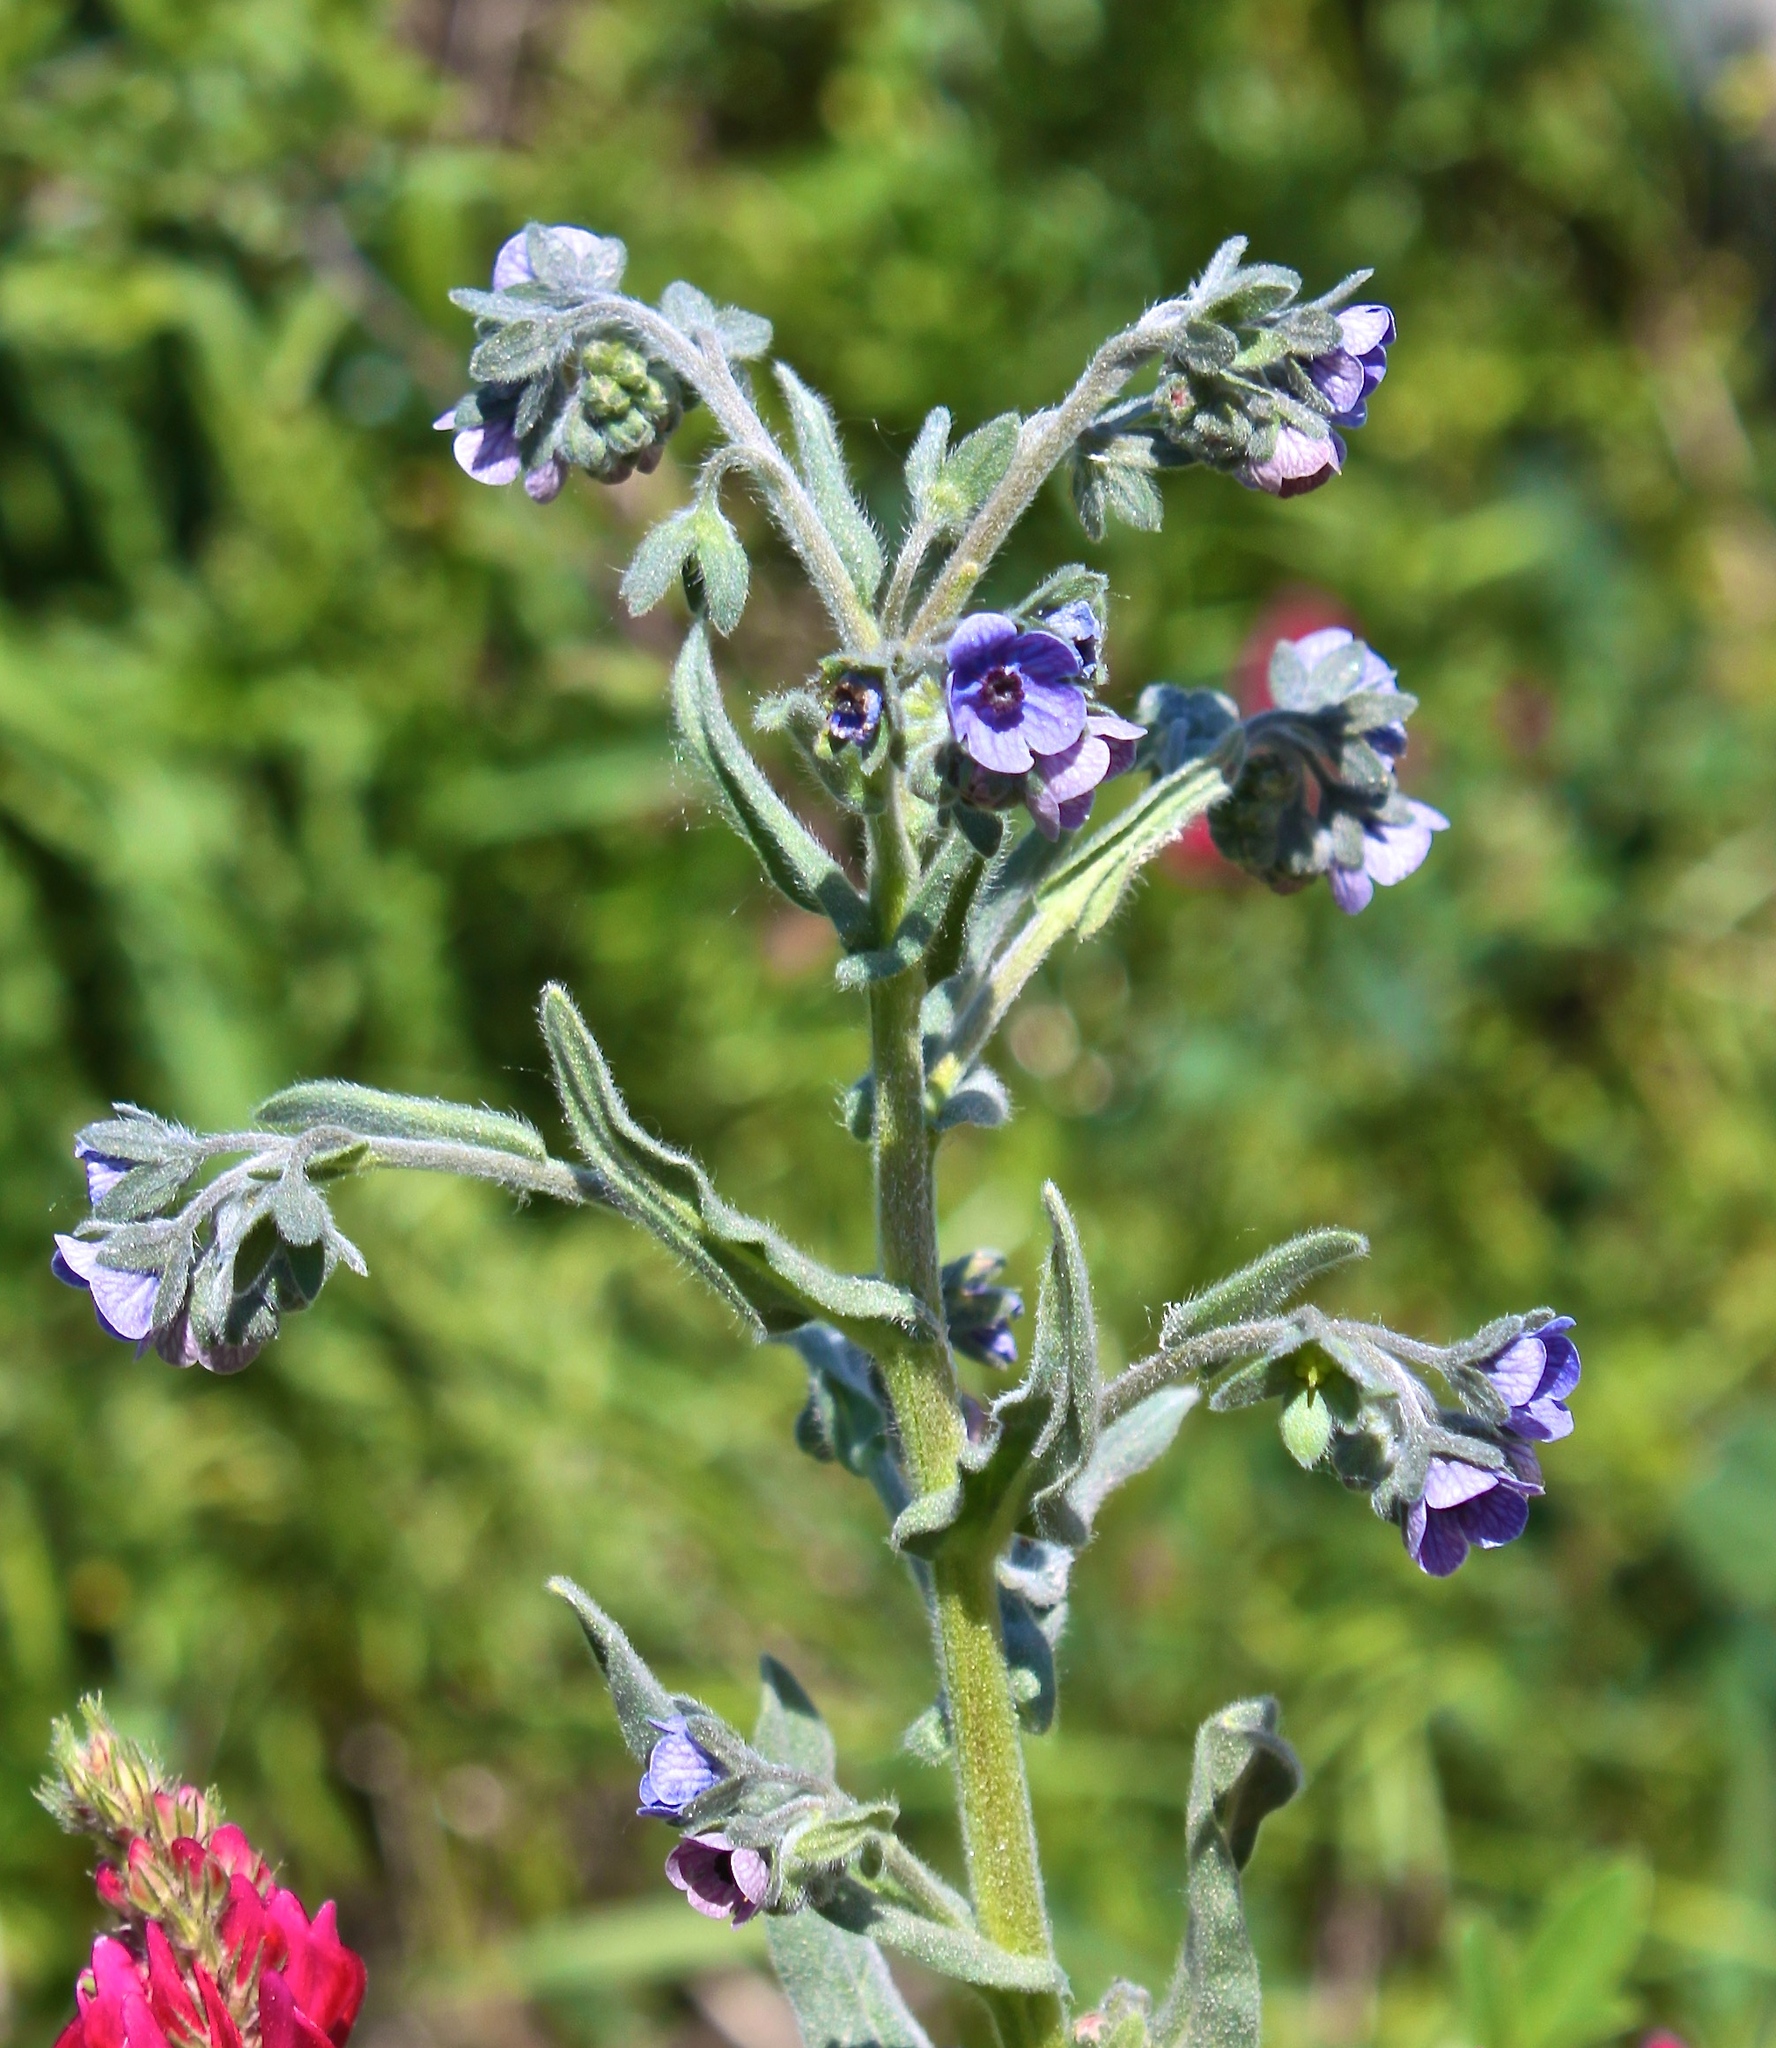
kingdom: Plantae
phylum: Tracheophyta
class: Magnoliopsida
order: Boraginales
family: Boraginaceae
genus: Cynoglossum
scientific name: Cynoglossum creticum
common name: Blue hound's tongue
